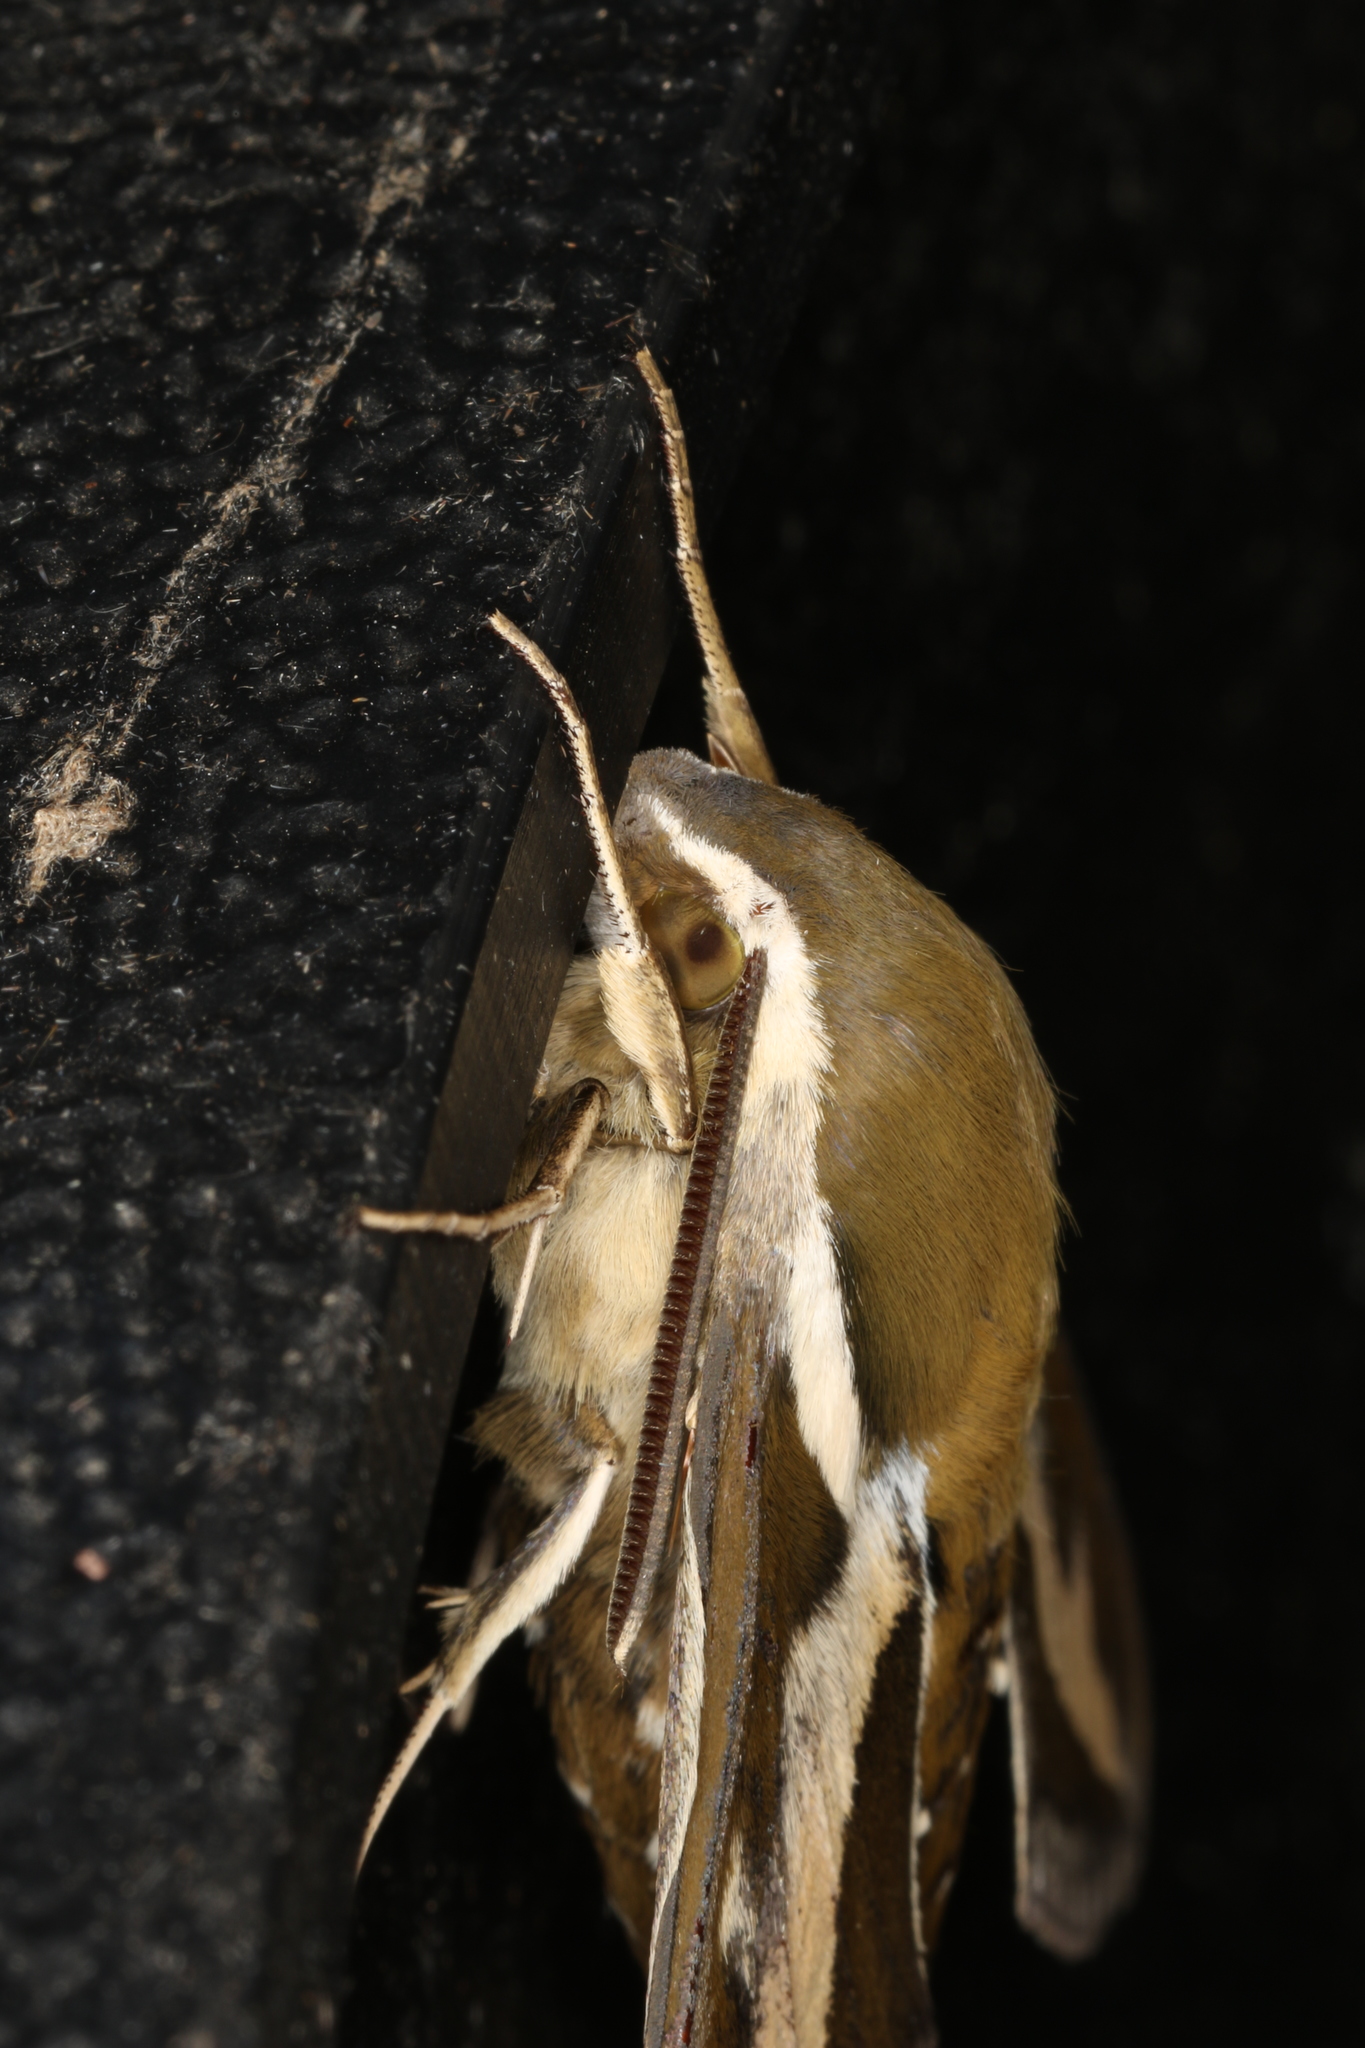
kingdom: Animalia
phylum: Arthropoda
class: Insecta
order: Lepidoptera
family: Sphingidae
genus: Hyles
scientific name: Hyles gallii
